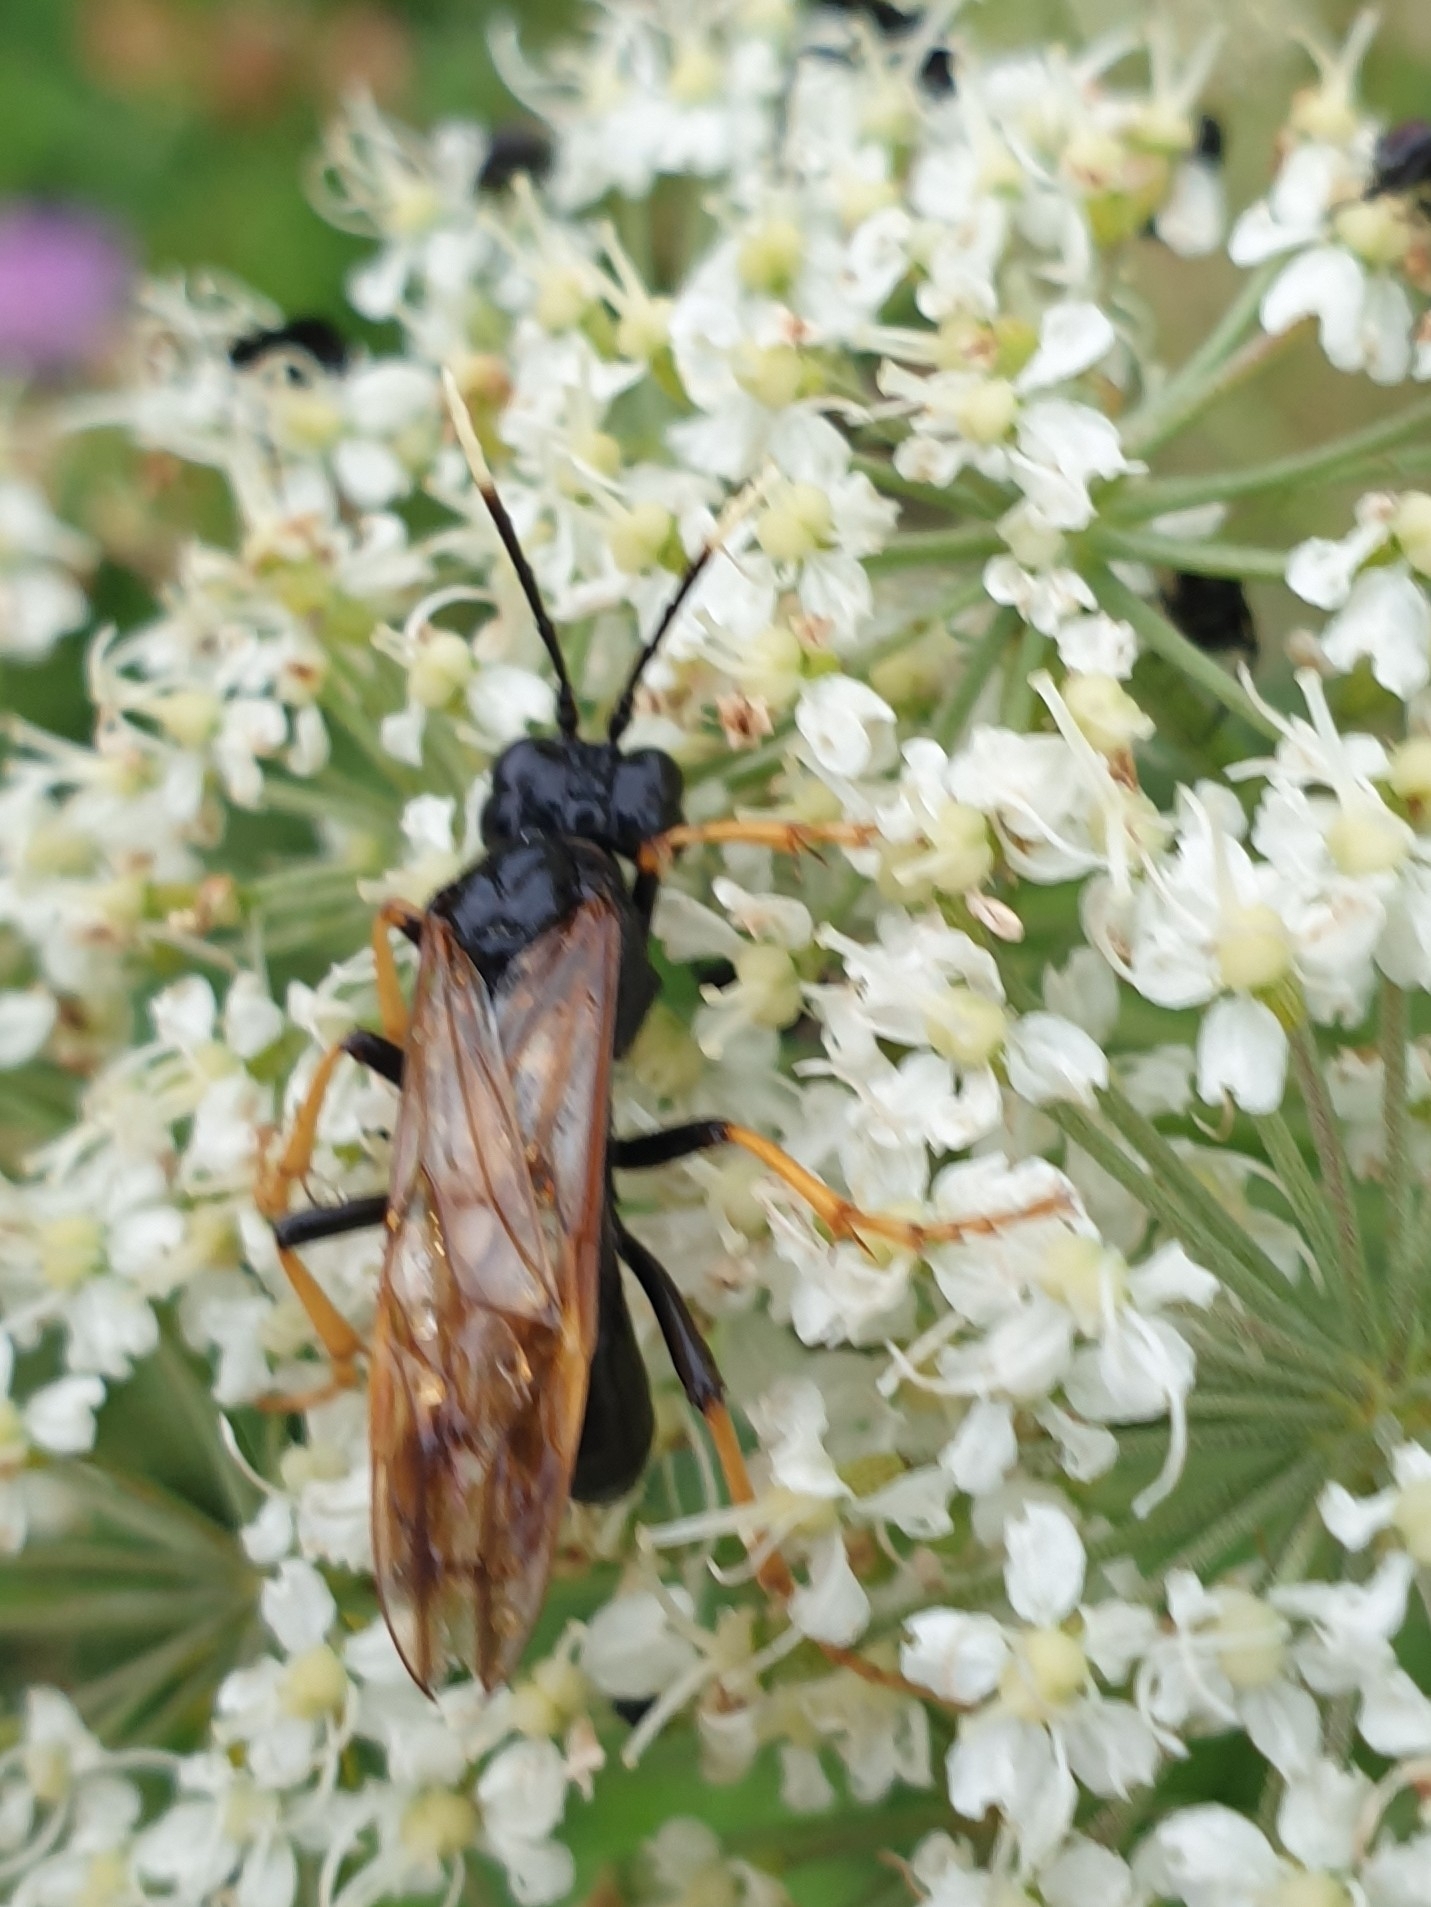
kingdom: Animalia
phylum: Arthropoda
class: Insecta
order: Hymenoptera
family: Tenthredinidae
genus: Tenthredo
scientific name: Tenthredo crassa
